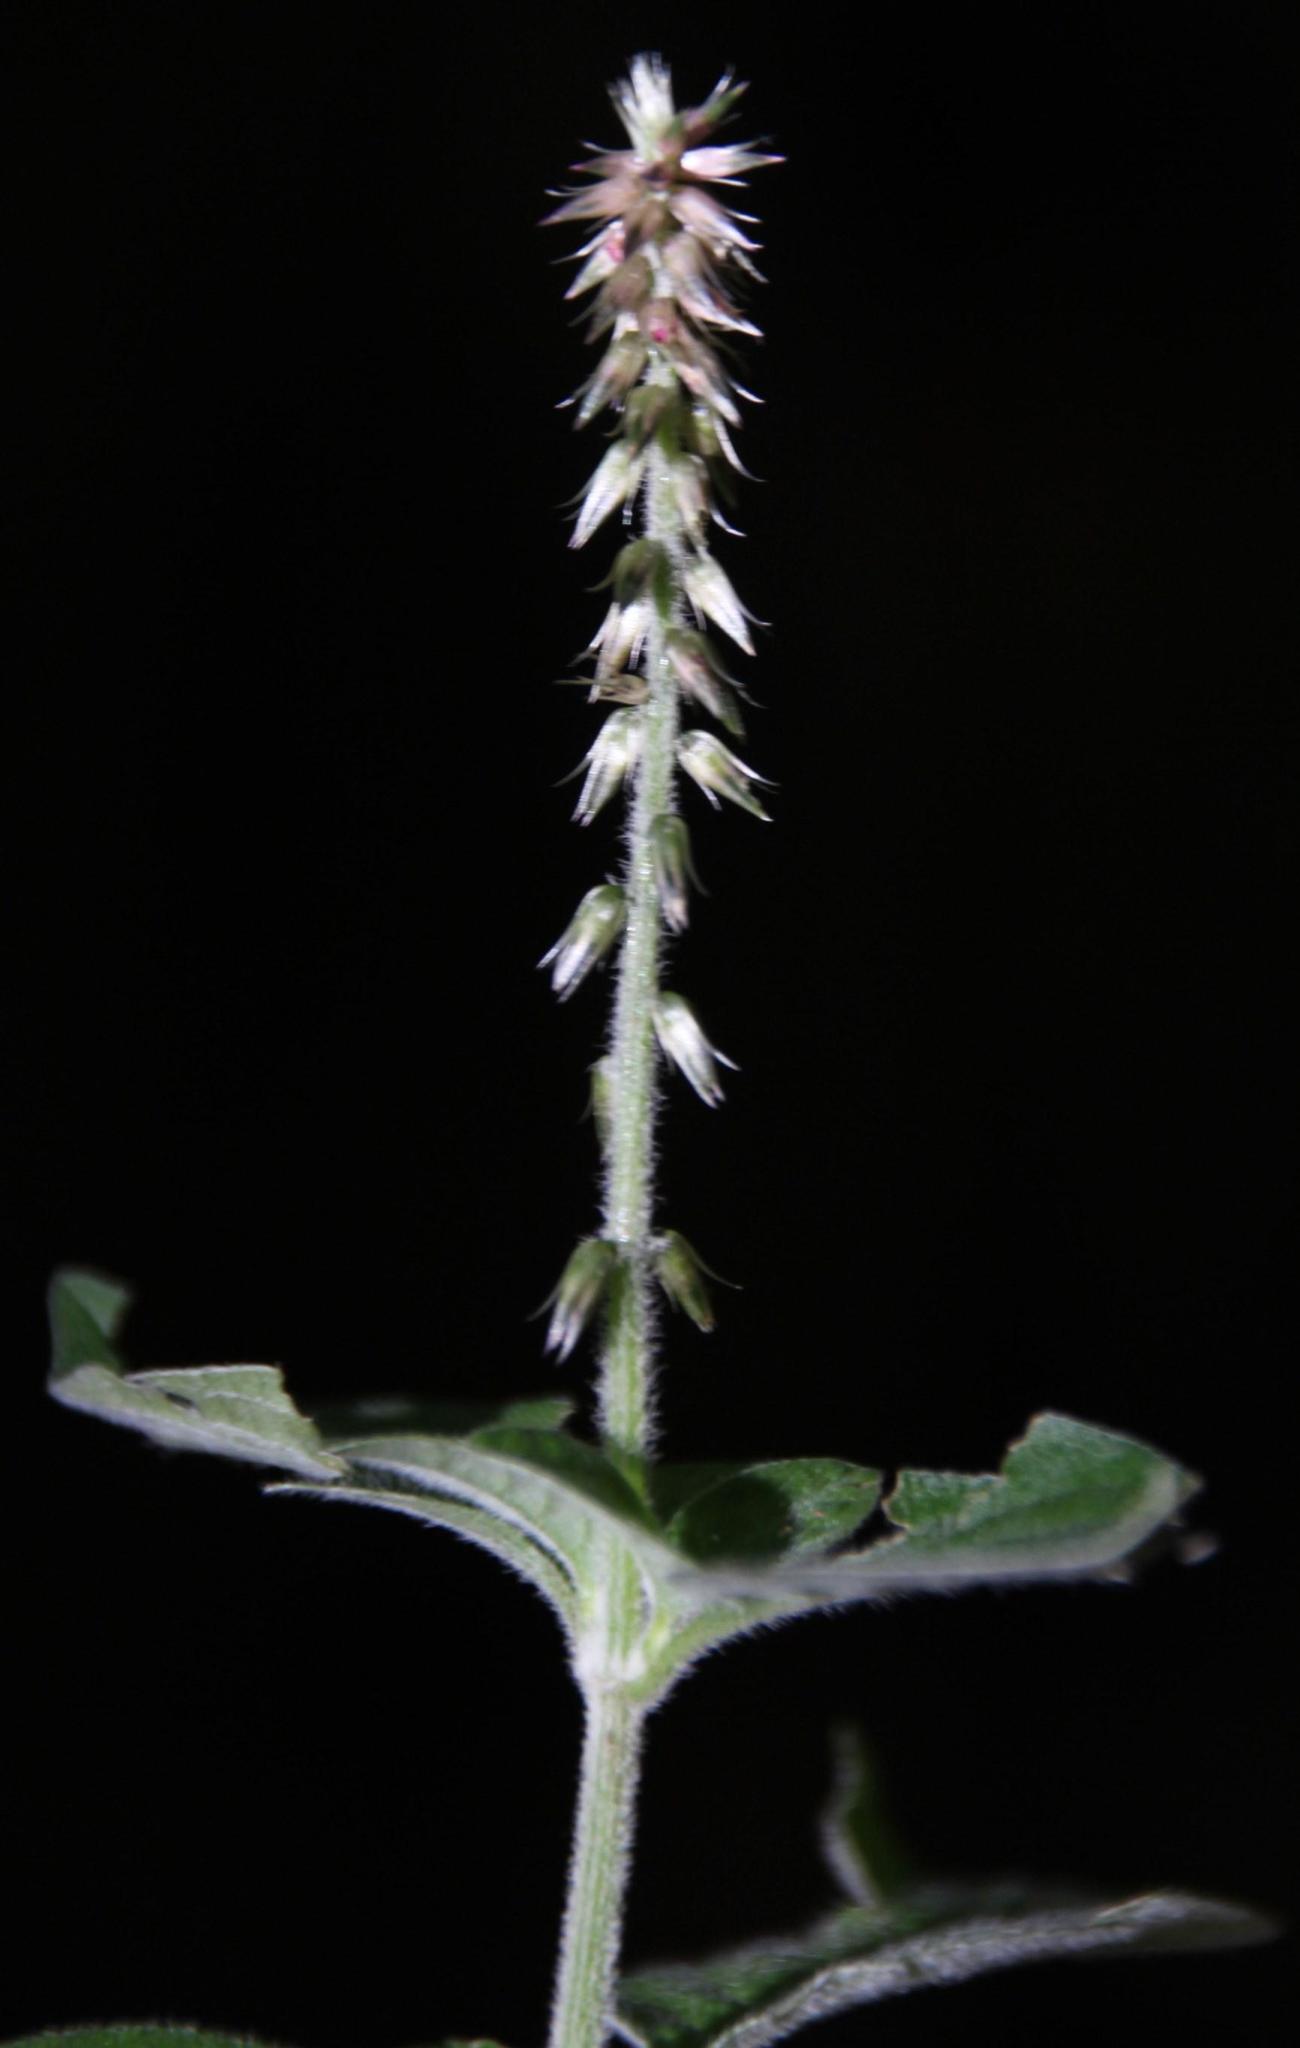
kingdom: Plantae
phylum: Tracheophyta
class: Magnoliopsida
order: Caryophyllales
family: Amaranthaceae
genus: Achyranthes
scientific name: Achyranthes aspera
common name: Devil's horsewhip
